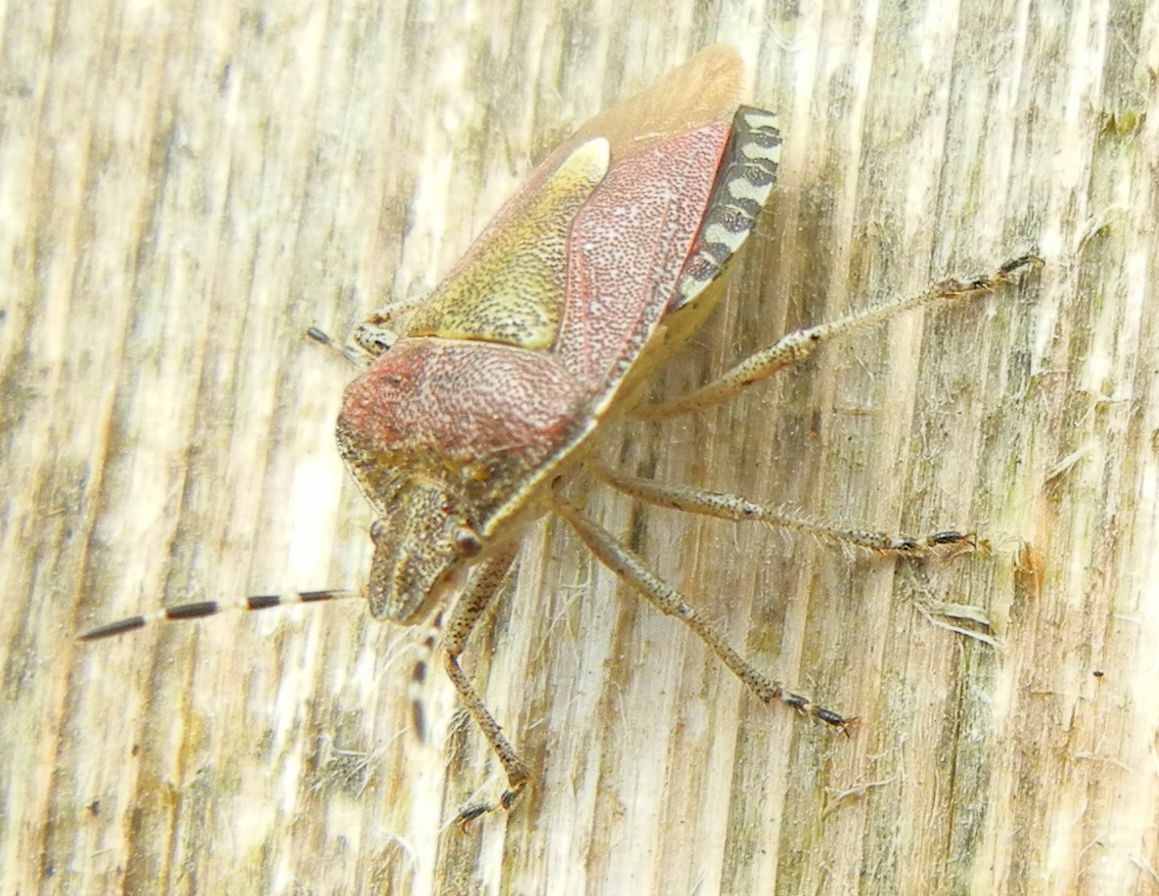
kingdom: Animalia
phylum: Arthropoda
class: Insecta
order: Hemiptera
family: Pentatomidae
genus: Dolycoris
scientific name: Dolycoris baccarum
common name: Sloe bug
